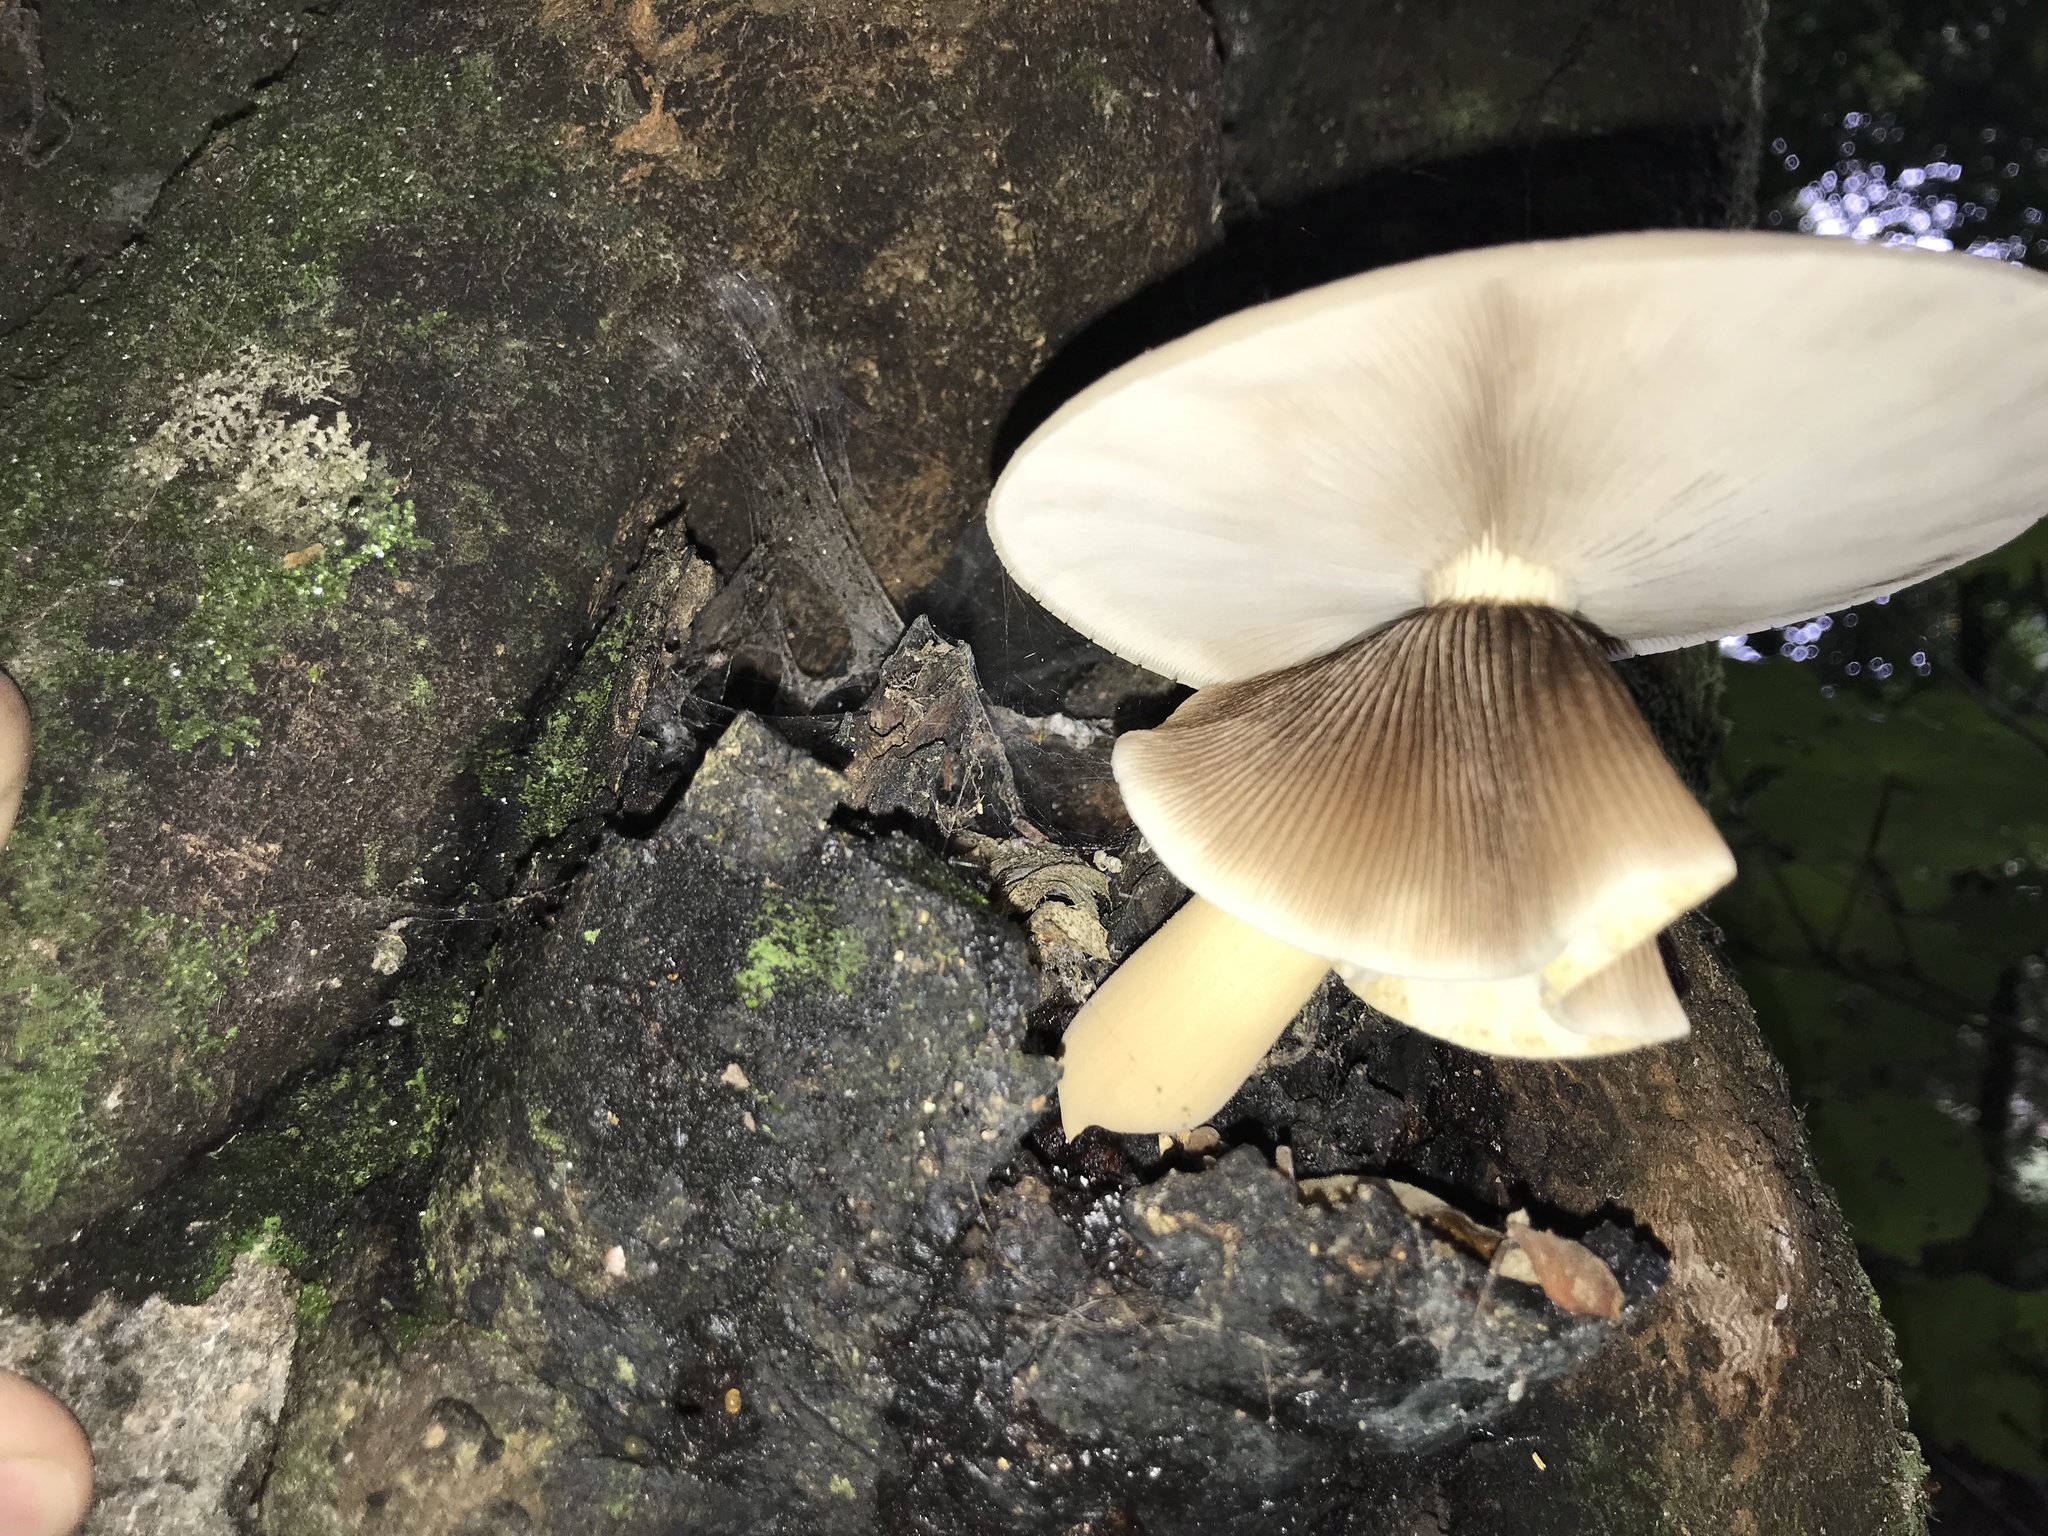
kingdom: Fungi
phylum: Basidiomycota
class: Agaricomycetes
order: Agaricales
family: Tubariaceae
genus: Cyclocybe
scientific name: Cyclocybe parasitica
